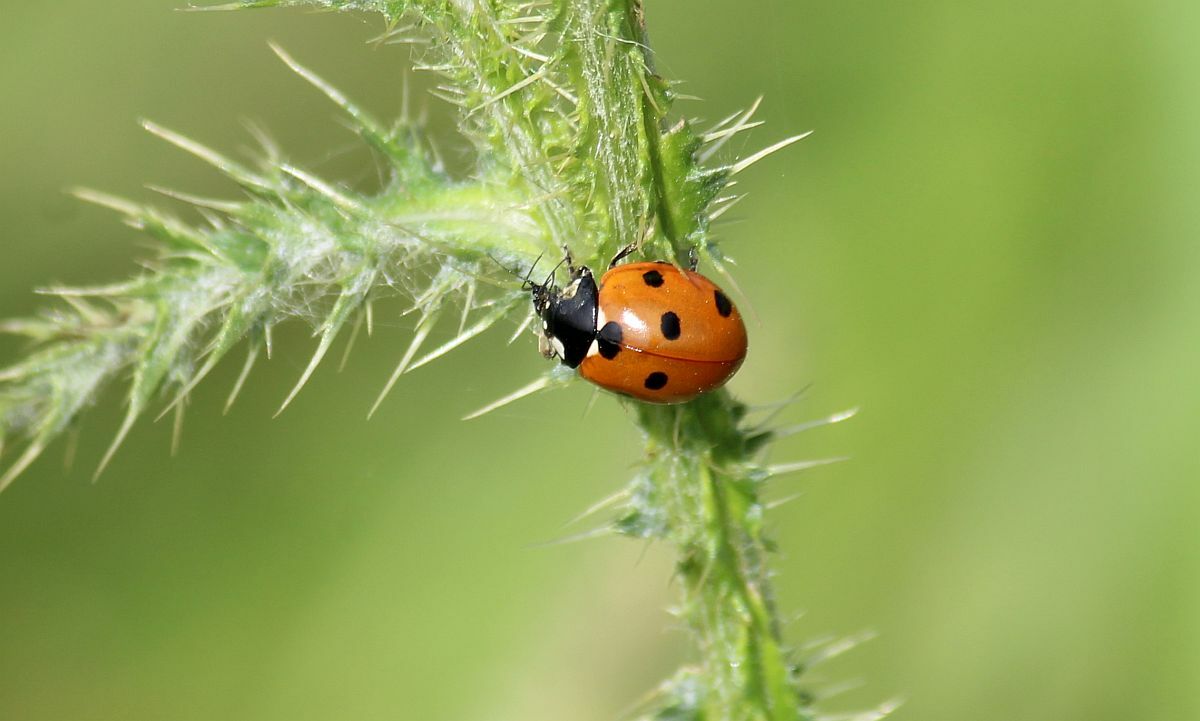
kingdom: Animalia
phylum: Arthropoda
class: Insecta
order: Coleoptera
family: Coccinellidae
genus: Coccinella
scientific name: Coccinella septempunctata
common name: Sevenspotted lady beetle
